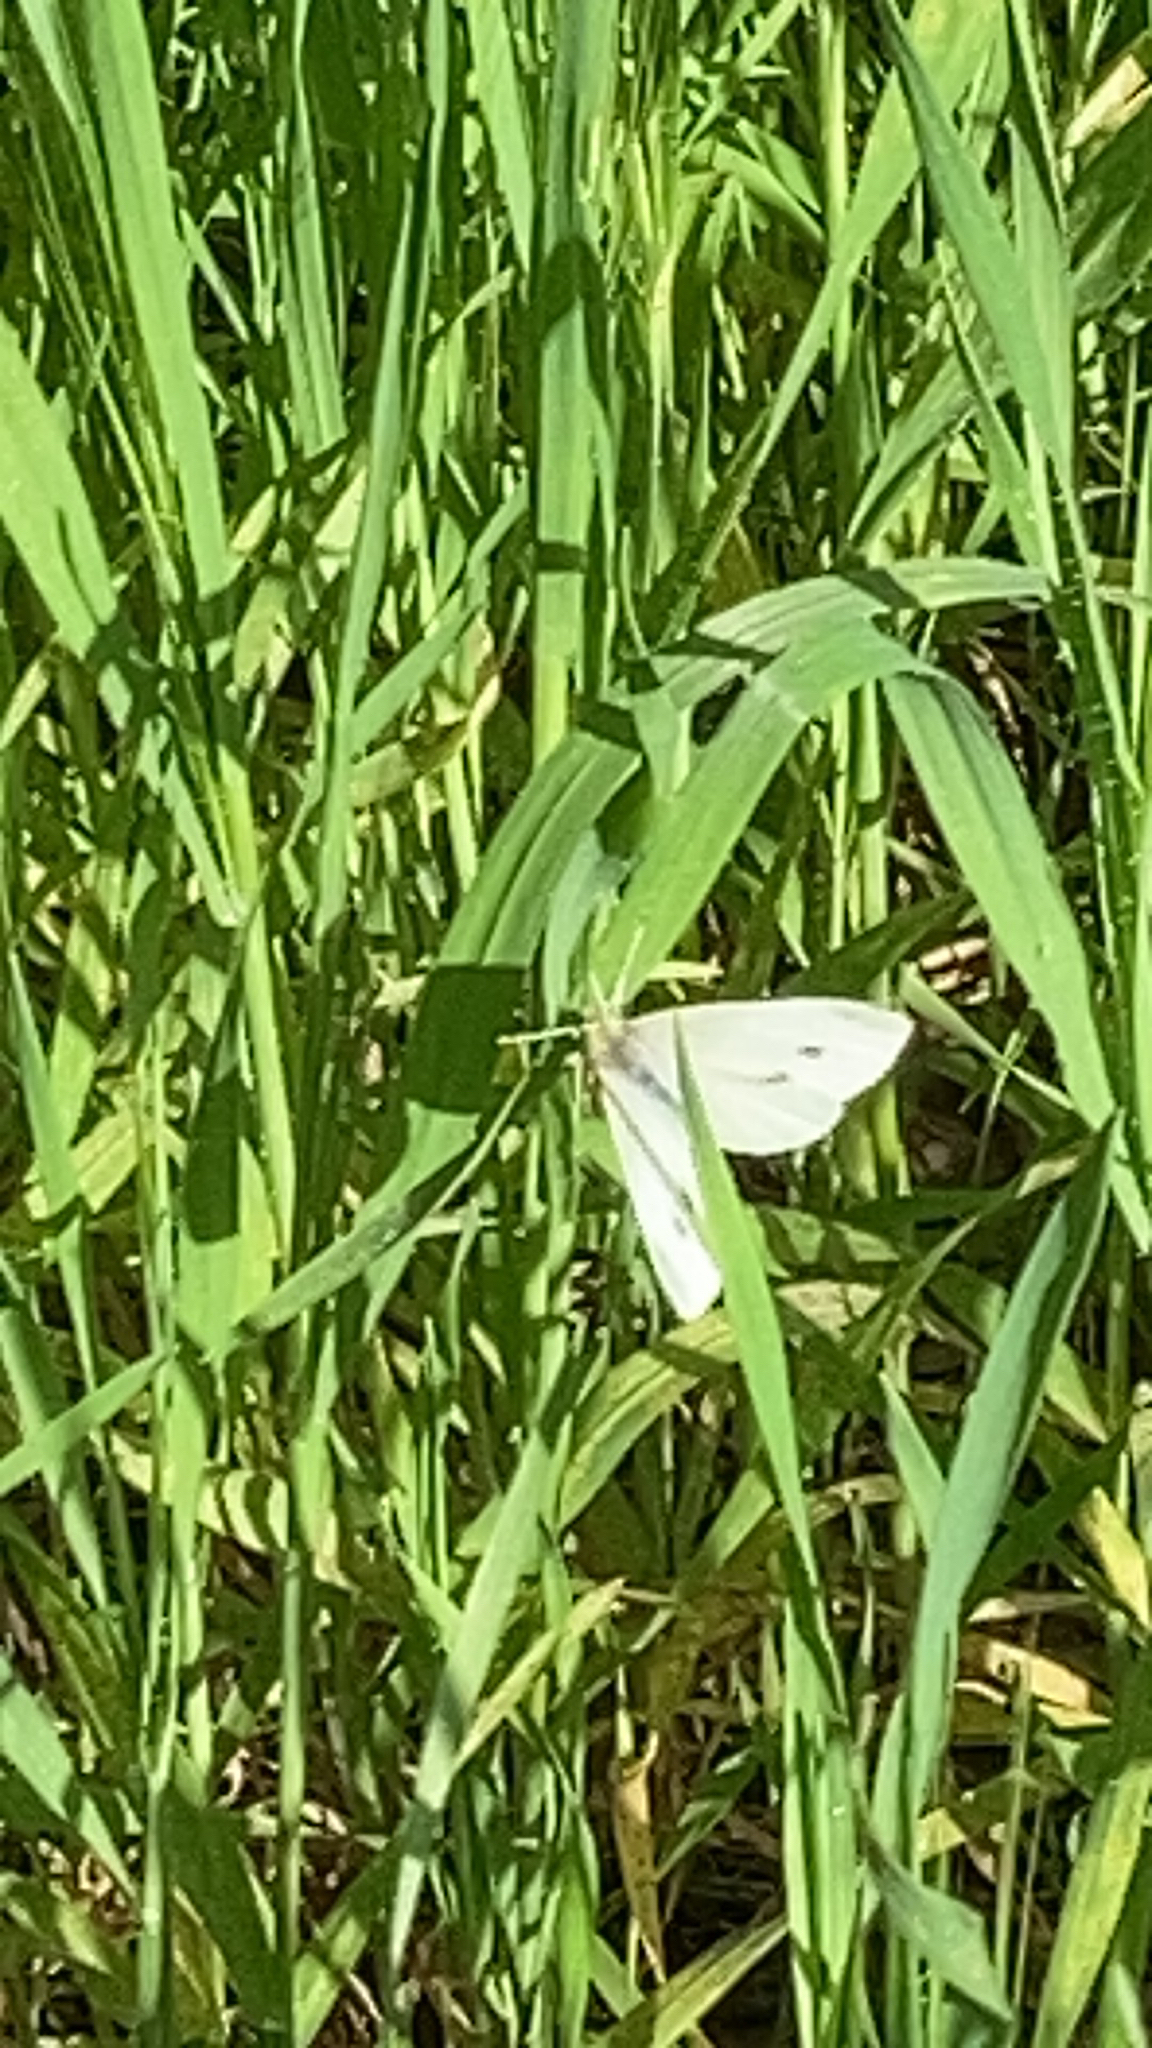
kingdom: Animalia
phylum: Arthropoda
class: Insecta
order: Lepidoptera
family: Pieridae
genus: Pieris
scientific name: Pieris rapae
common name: Small white
